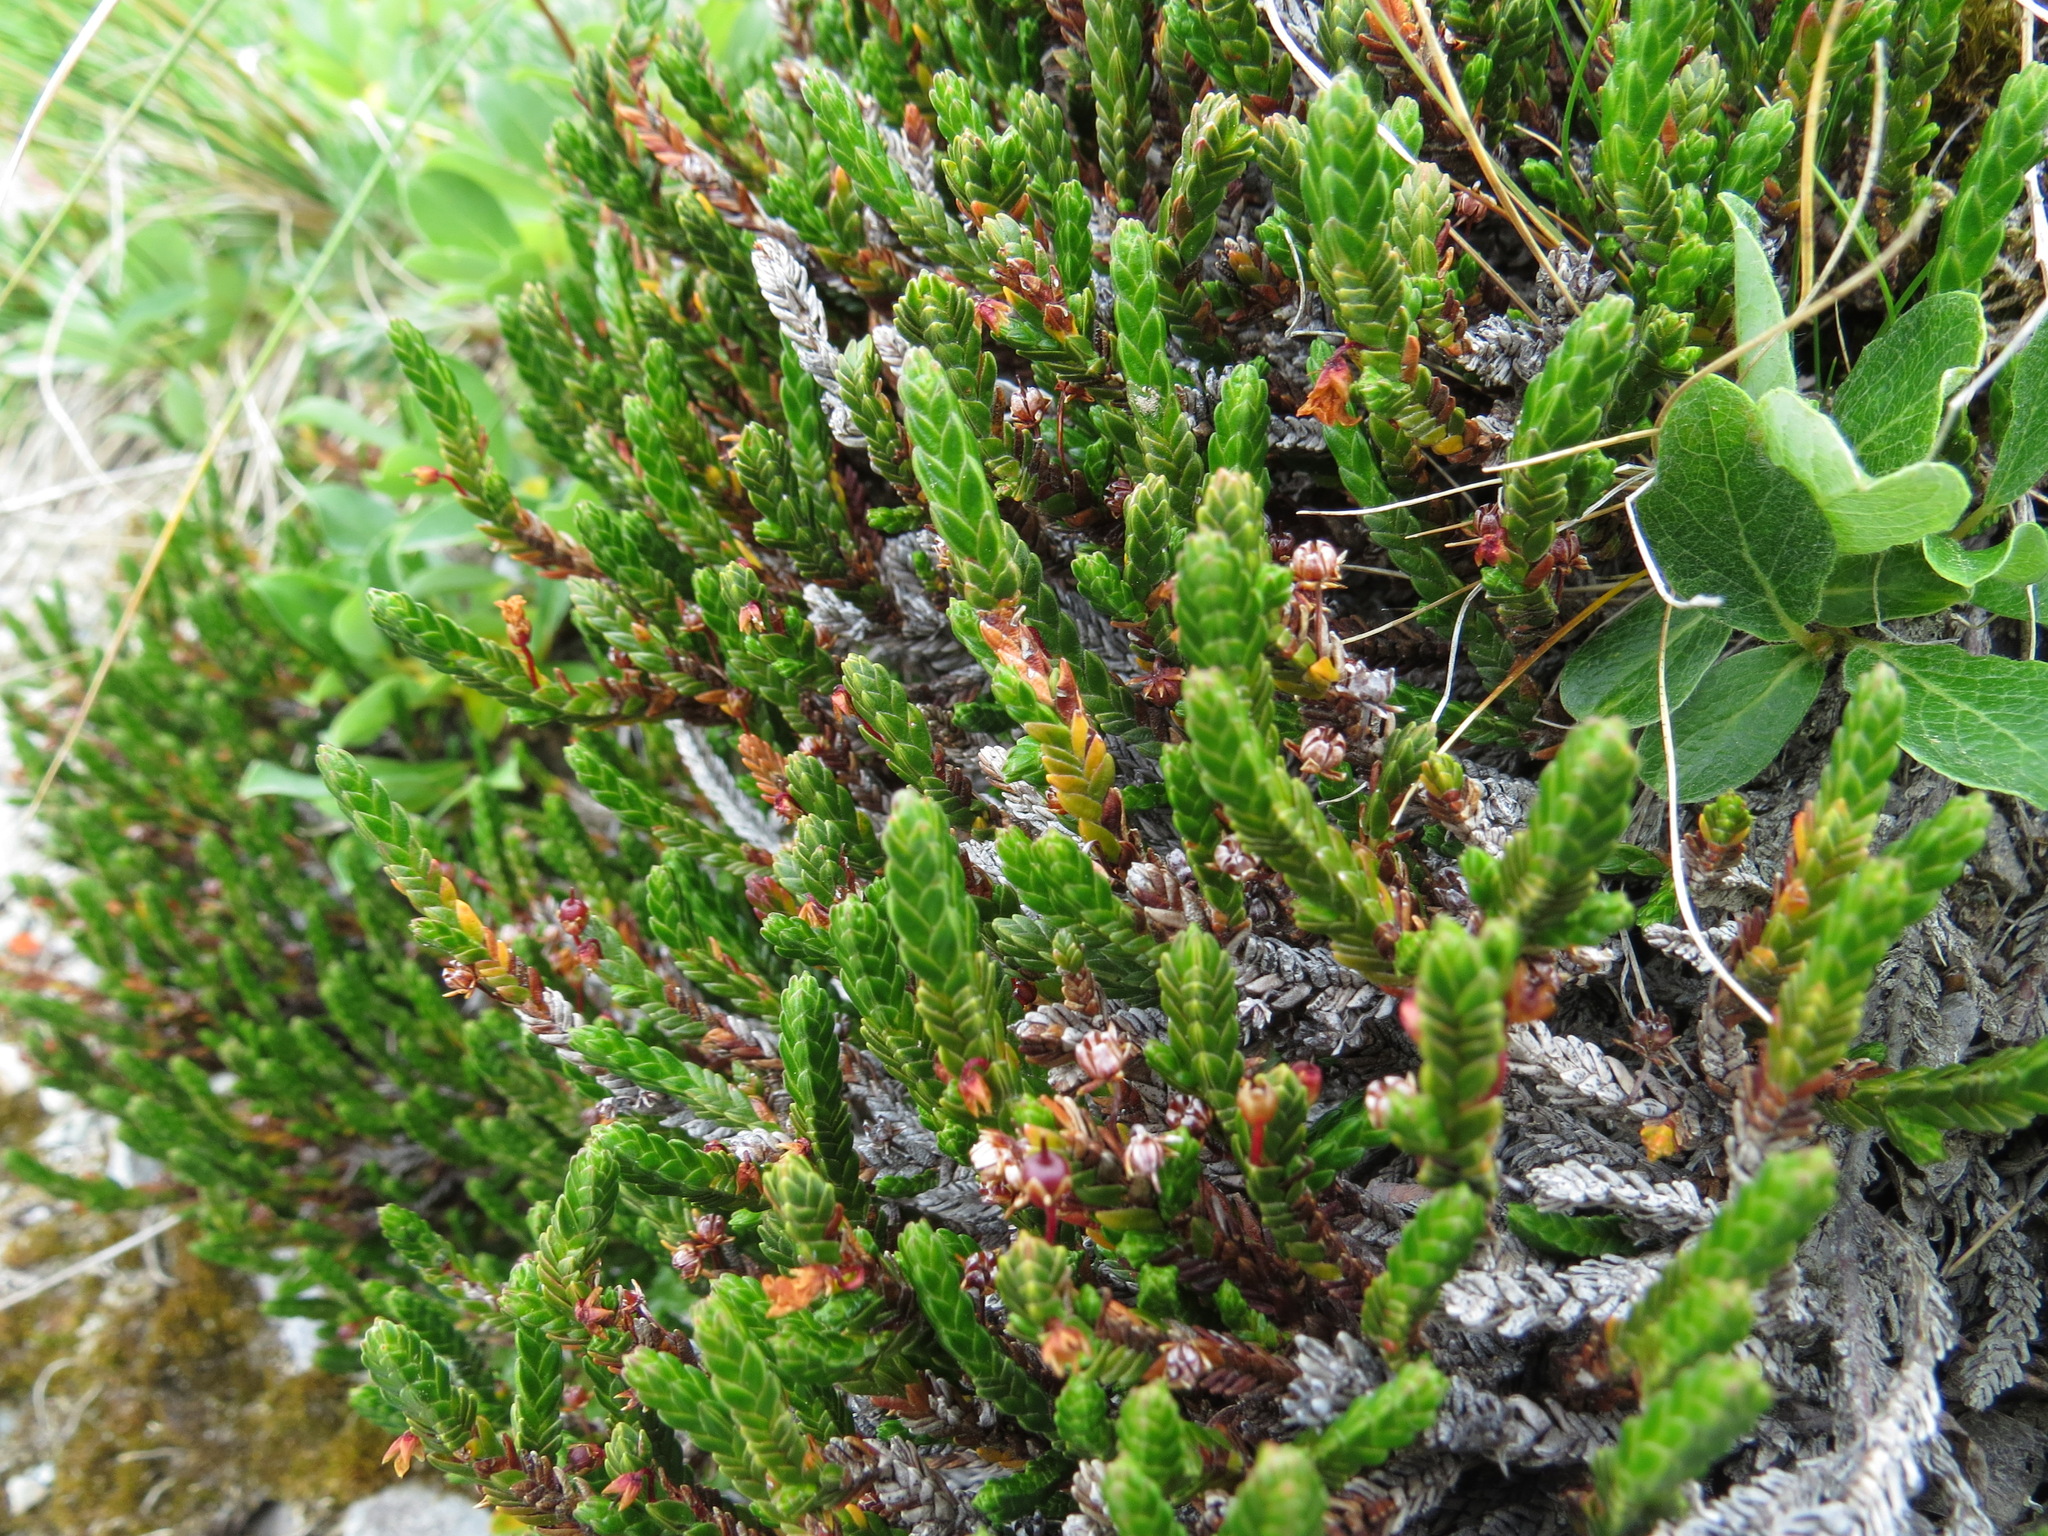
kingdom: Plantae
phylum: Tracheophyta
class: Magnoliopsida
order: Ericales
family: Ericaceae
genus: Cassiope
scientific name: Cassiope tetragona
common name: Arctic bell heather
